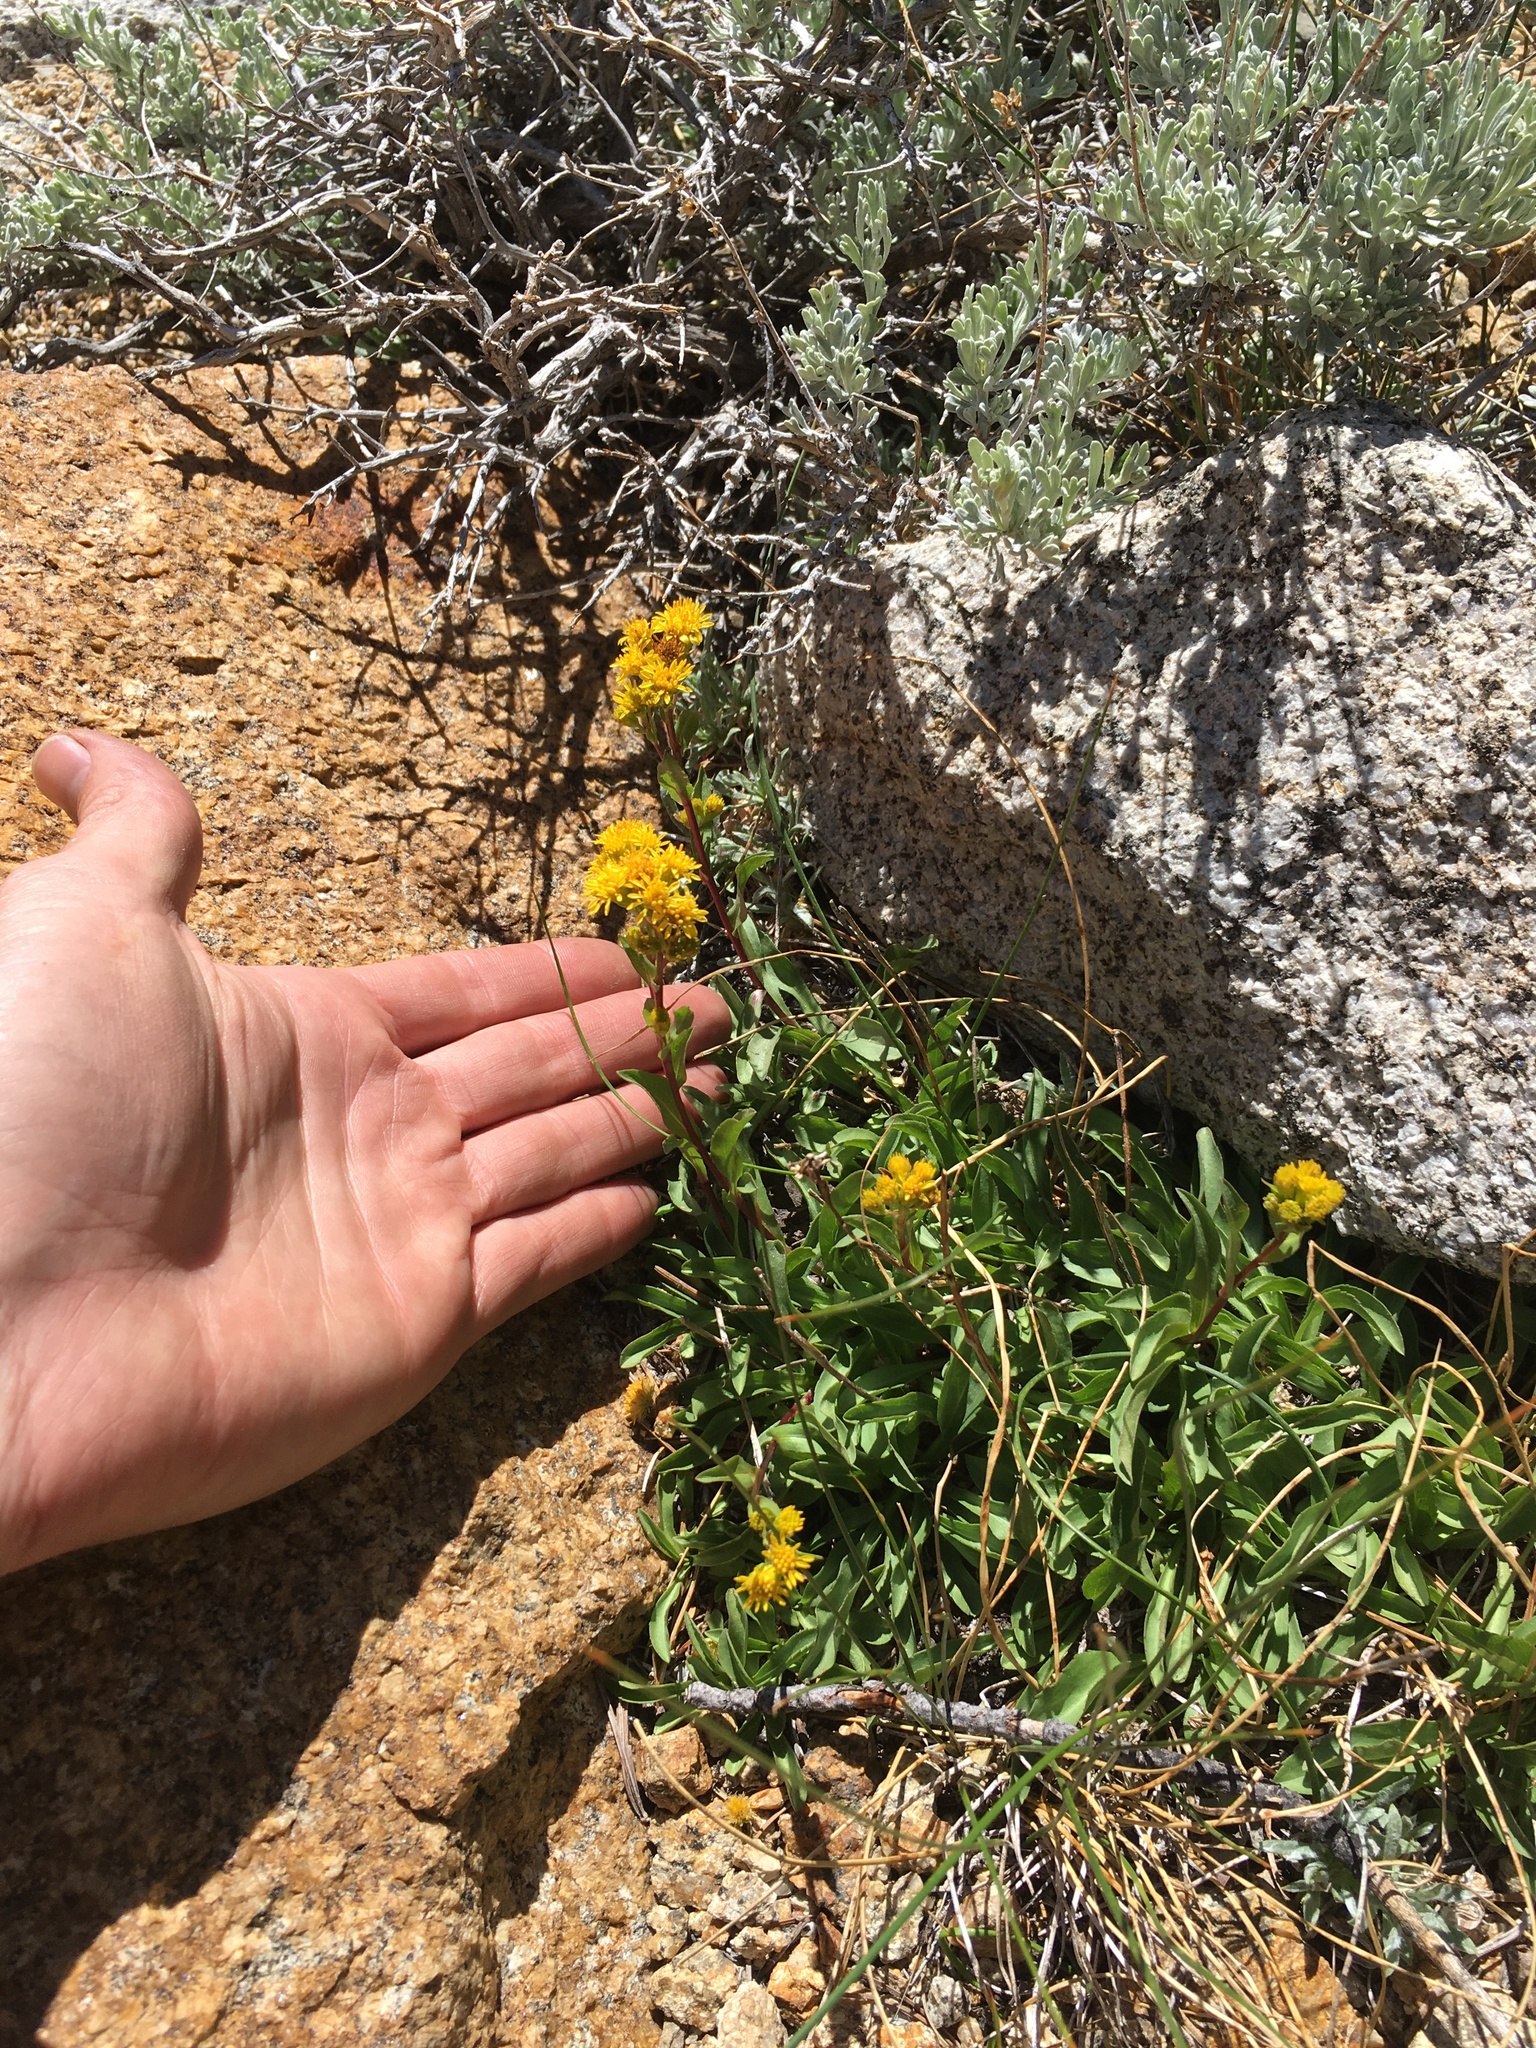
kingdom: Plantae
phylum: Tracheophyta
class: Magnoliopsida
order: Asterales
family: Asteraceae
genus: Solidago
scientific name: Solidago multiradiata
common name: Northern goldenrod
